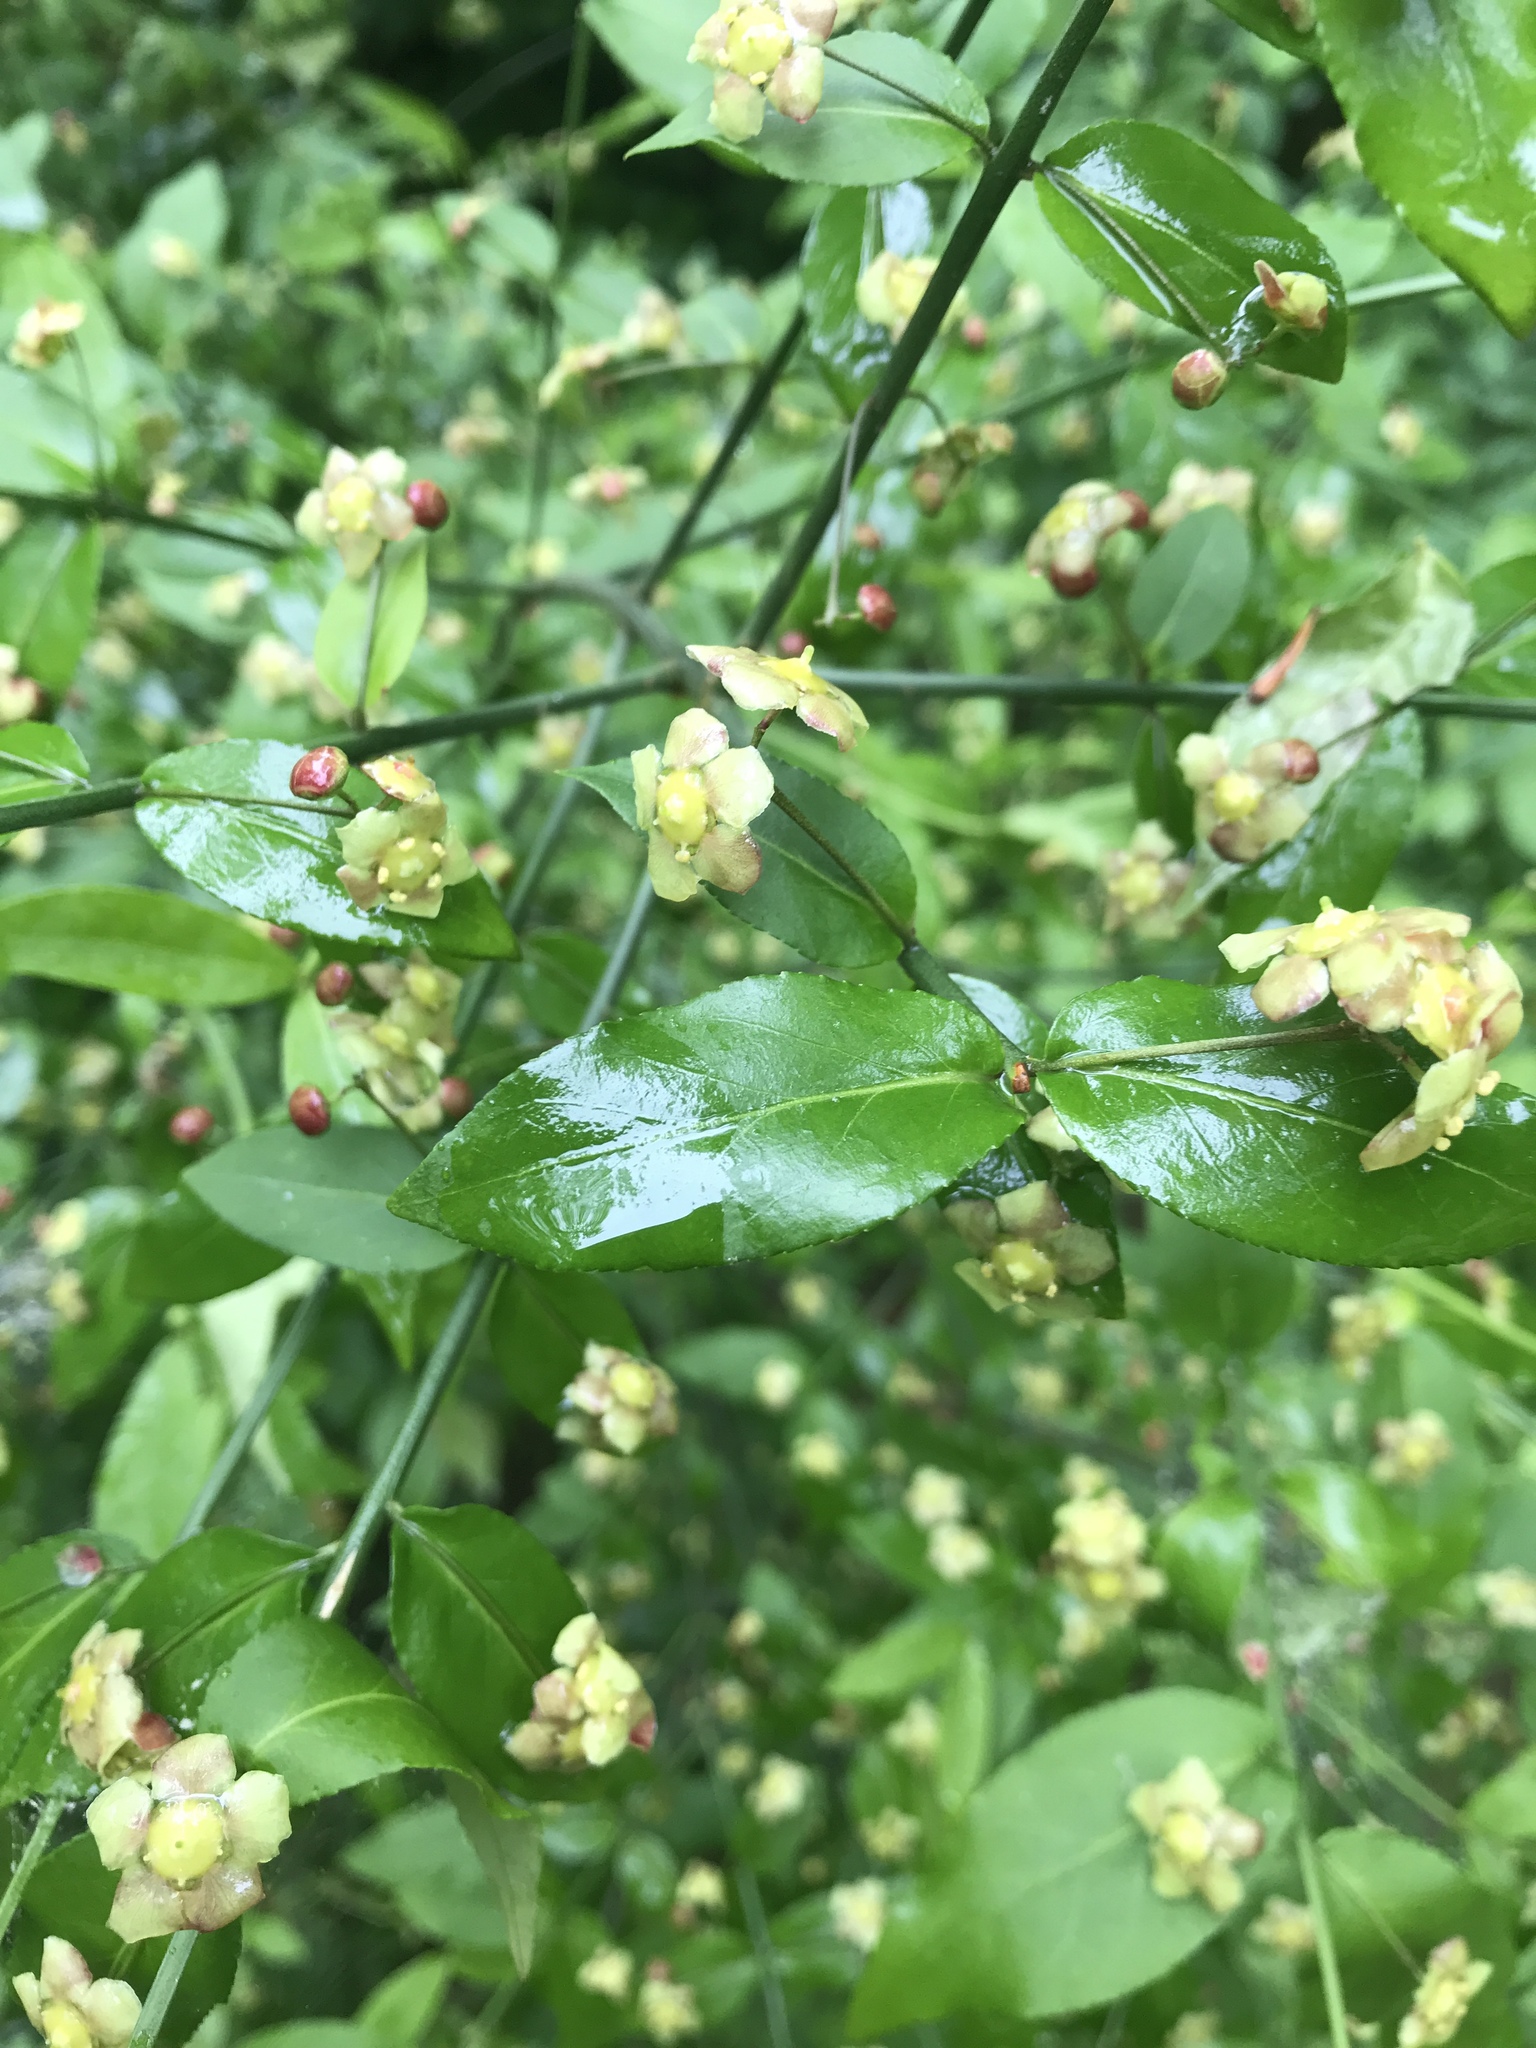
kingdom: Plantae
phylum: Tracheophyta
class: Magnoliopsida
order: Celastrales
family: Celastraceae
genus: Euonymus
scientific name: Euonymus americanus
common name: Bursting-heart
